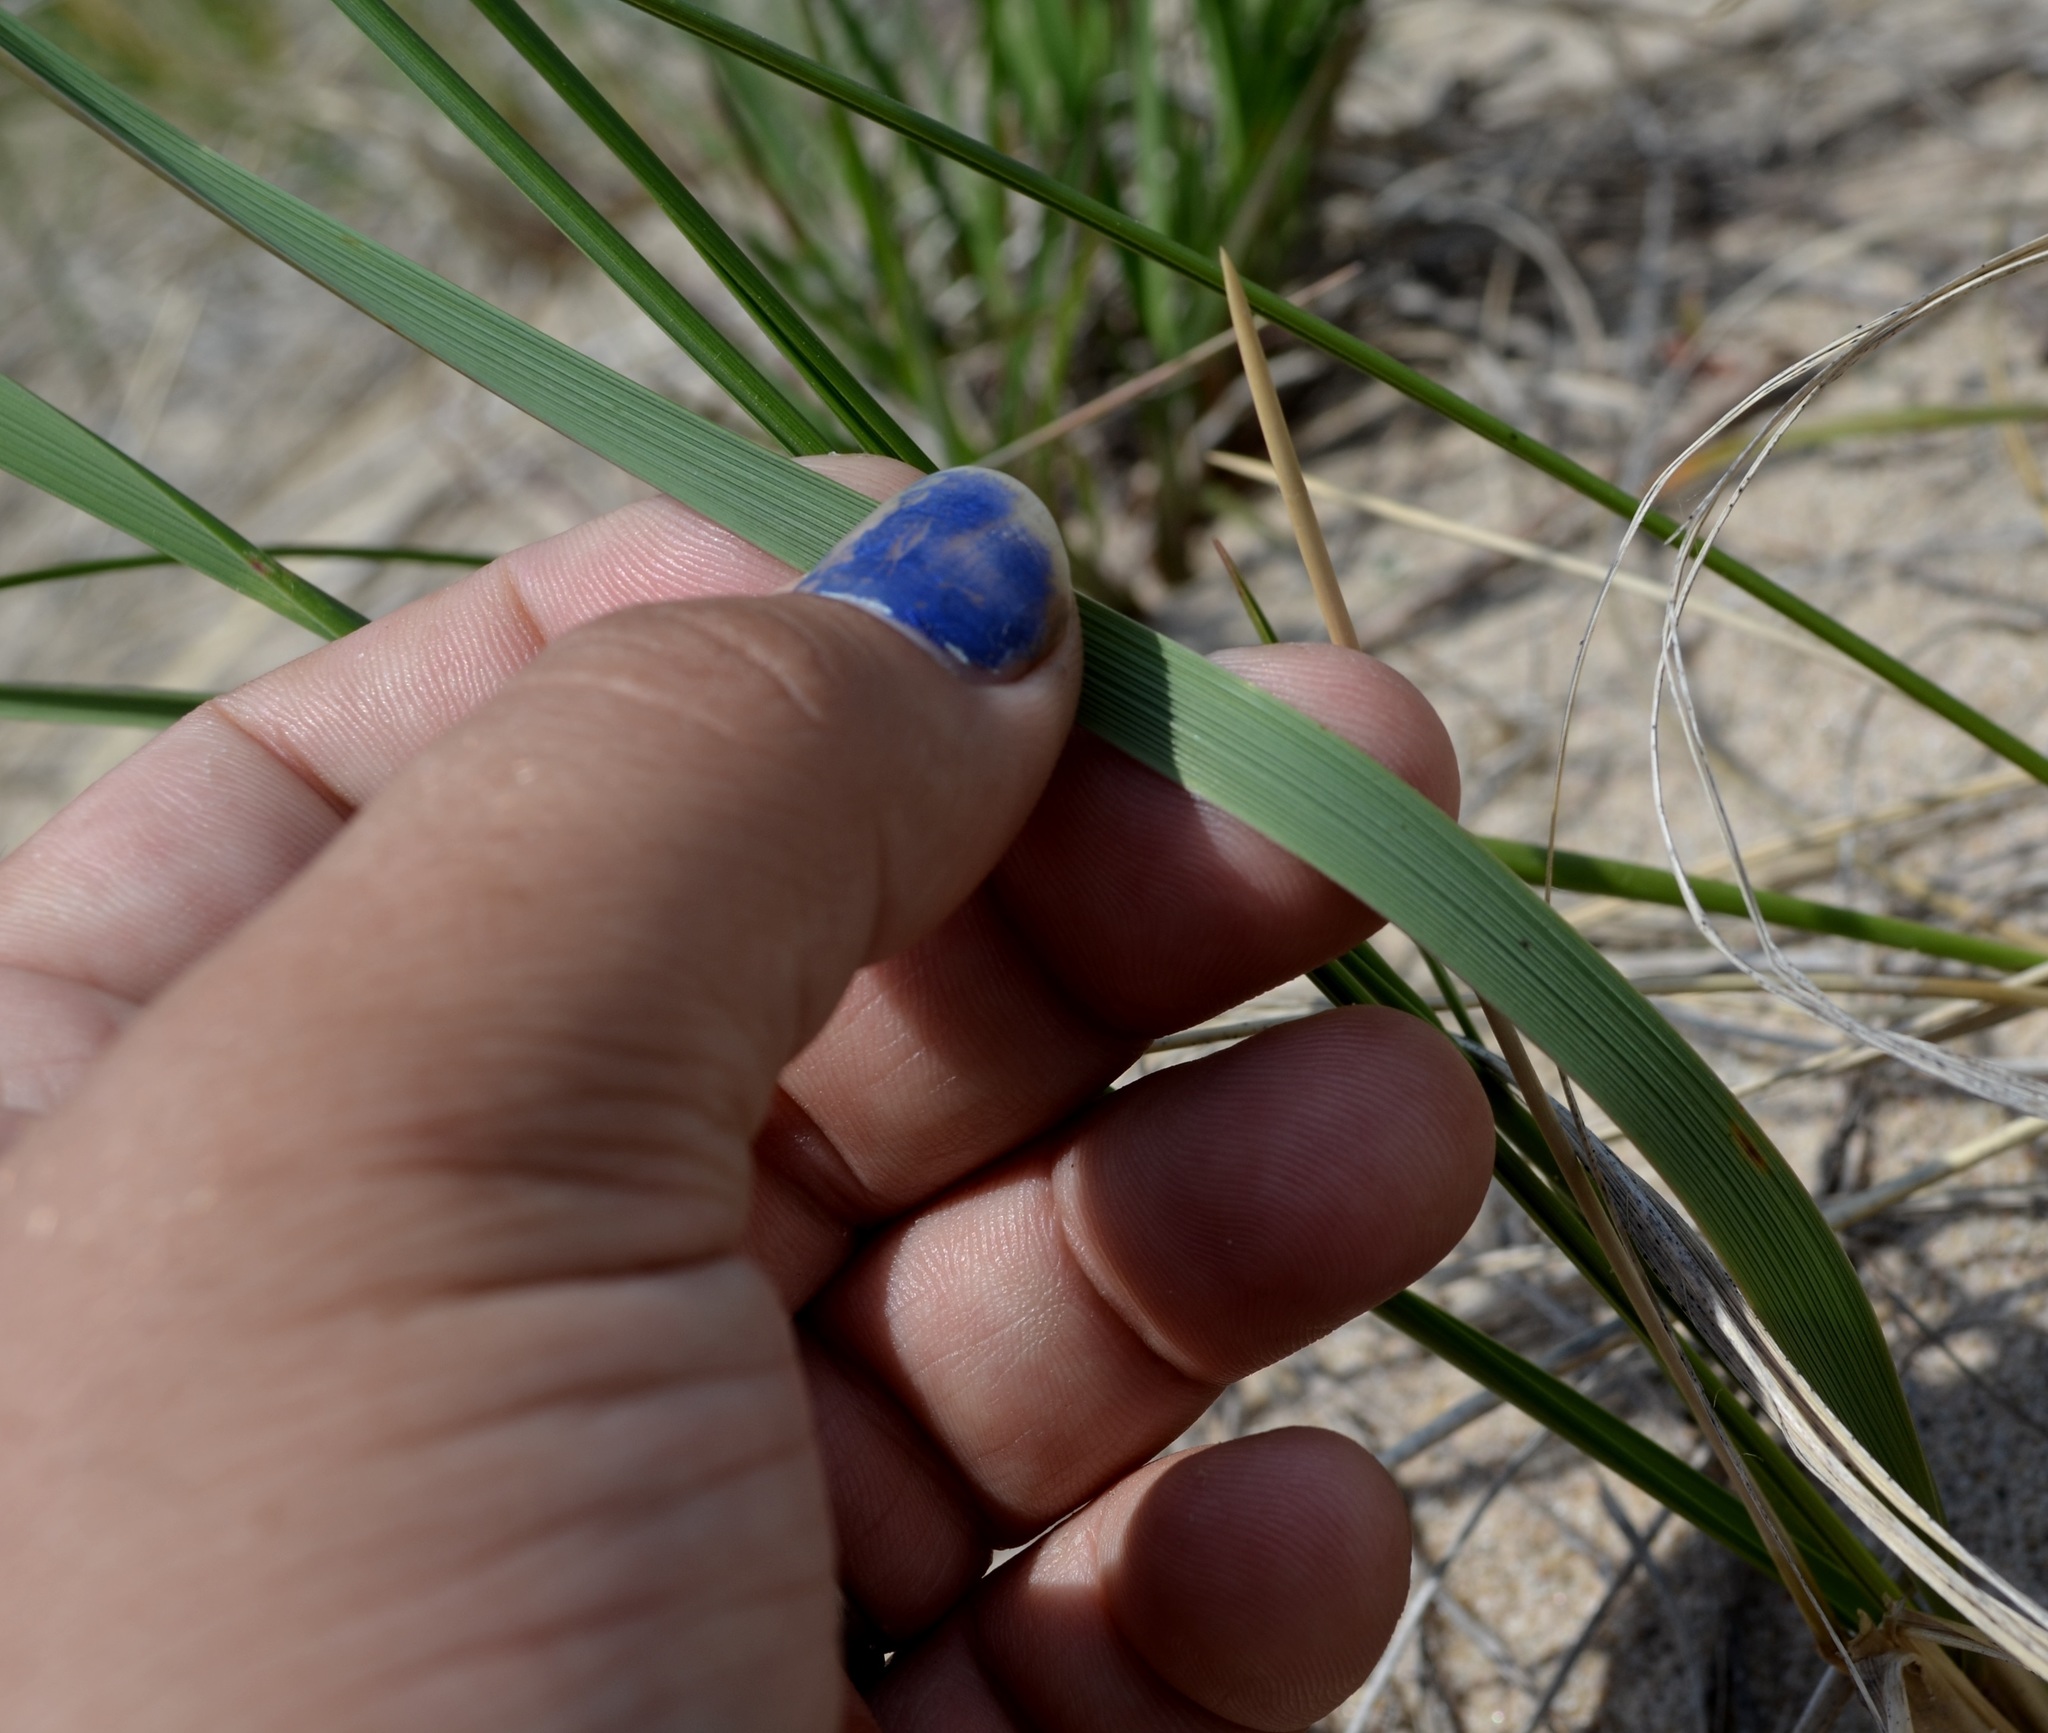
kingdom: Plantae
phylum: Tracheophyta
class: Liliopsida
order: Poales
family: Poaceae
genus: Calamagrostis
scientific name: Calamagrostis breviligulata
